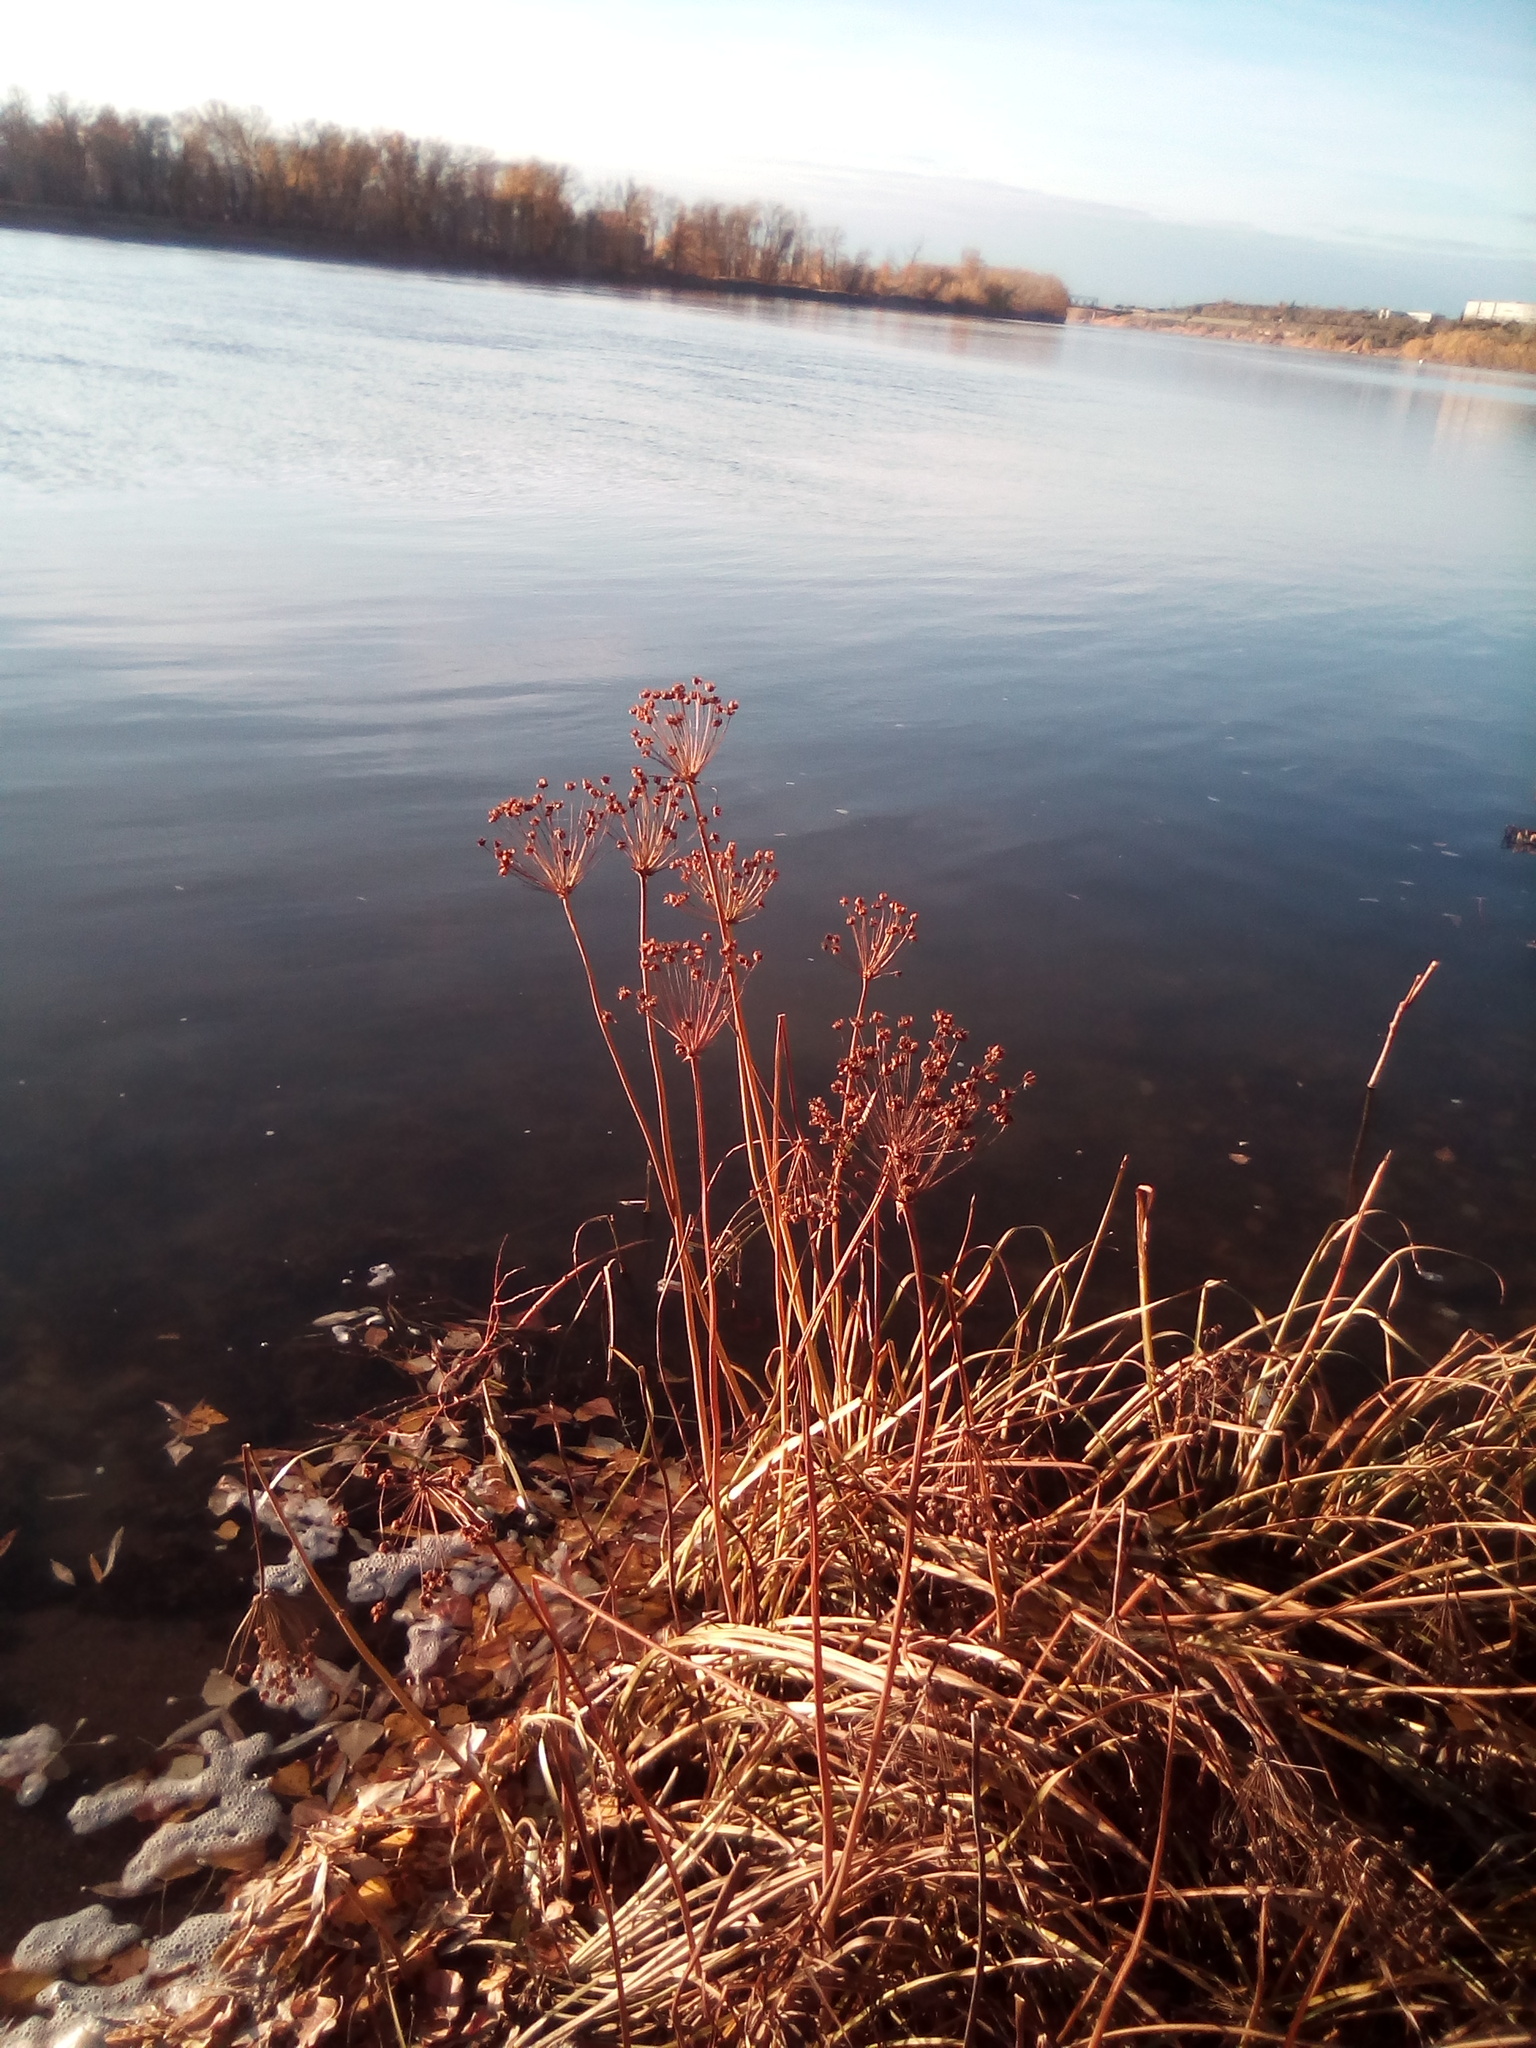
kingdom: Plantae
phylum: Tracheophyta
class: Liliopsida
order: Alismatales
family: Butomaceae
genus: Butomus
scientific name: Butomus umbellatus
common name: Flowering-rush
